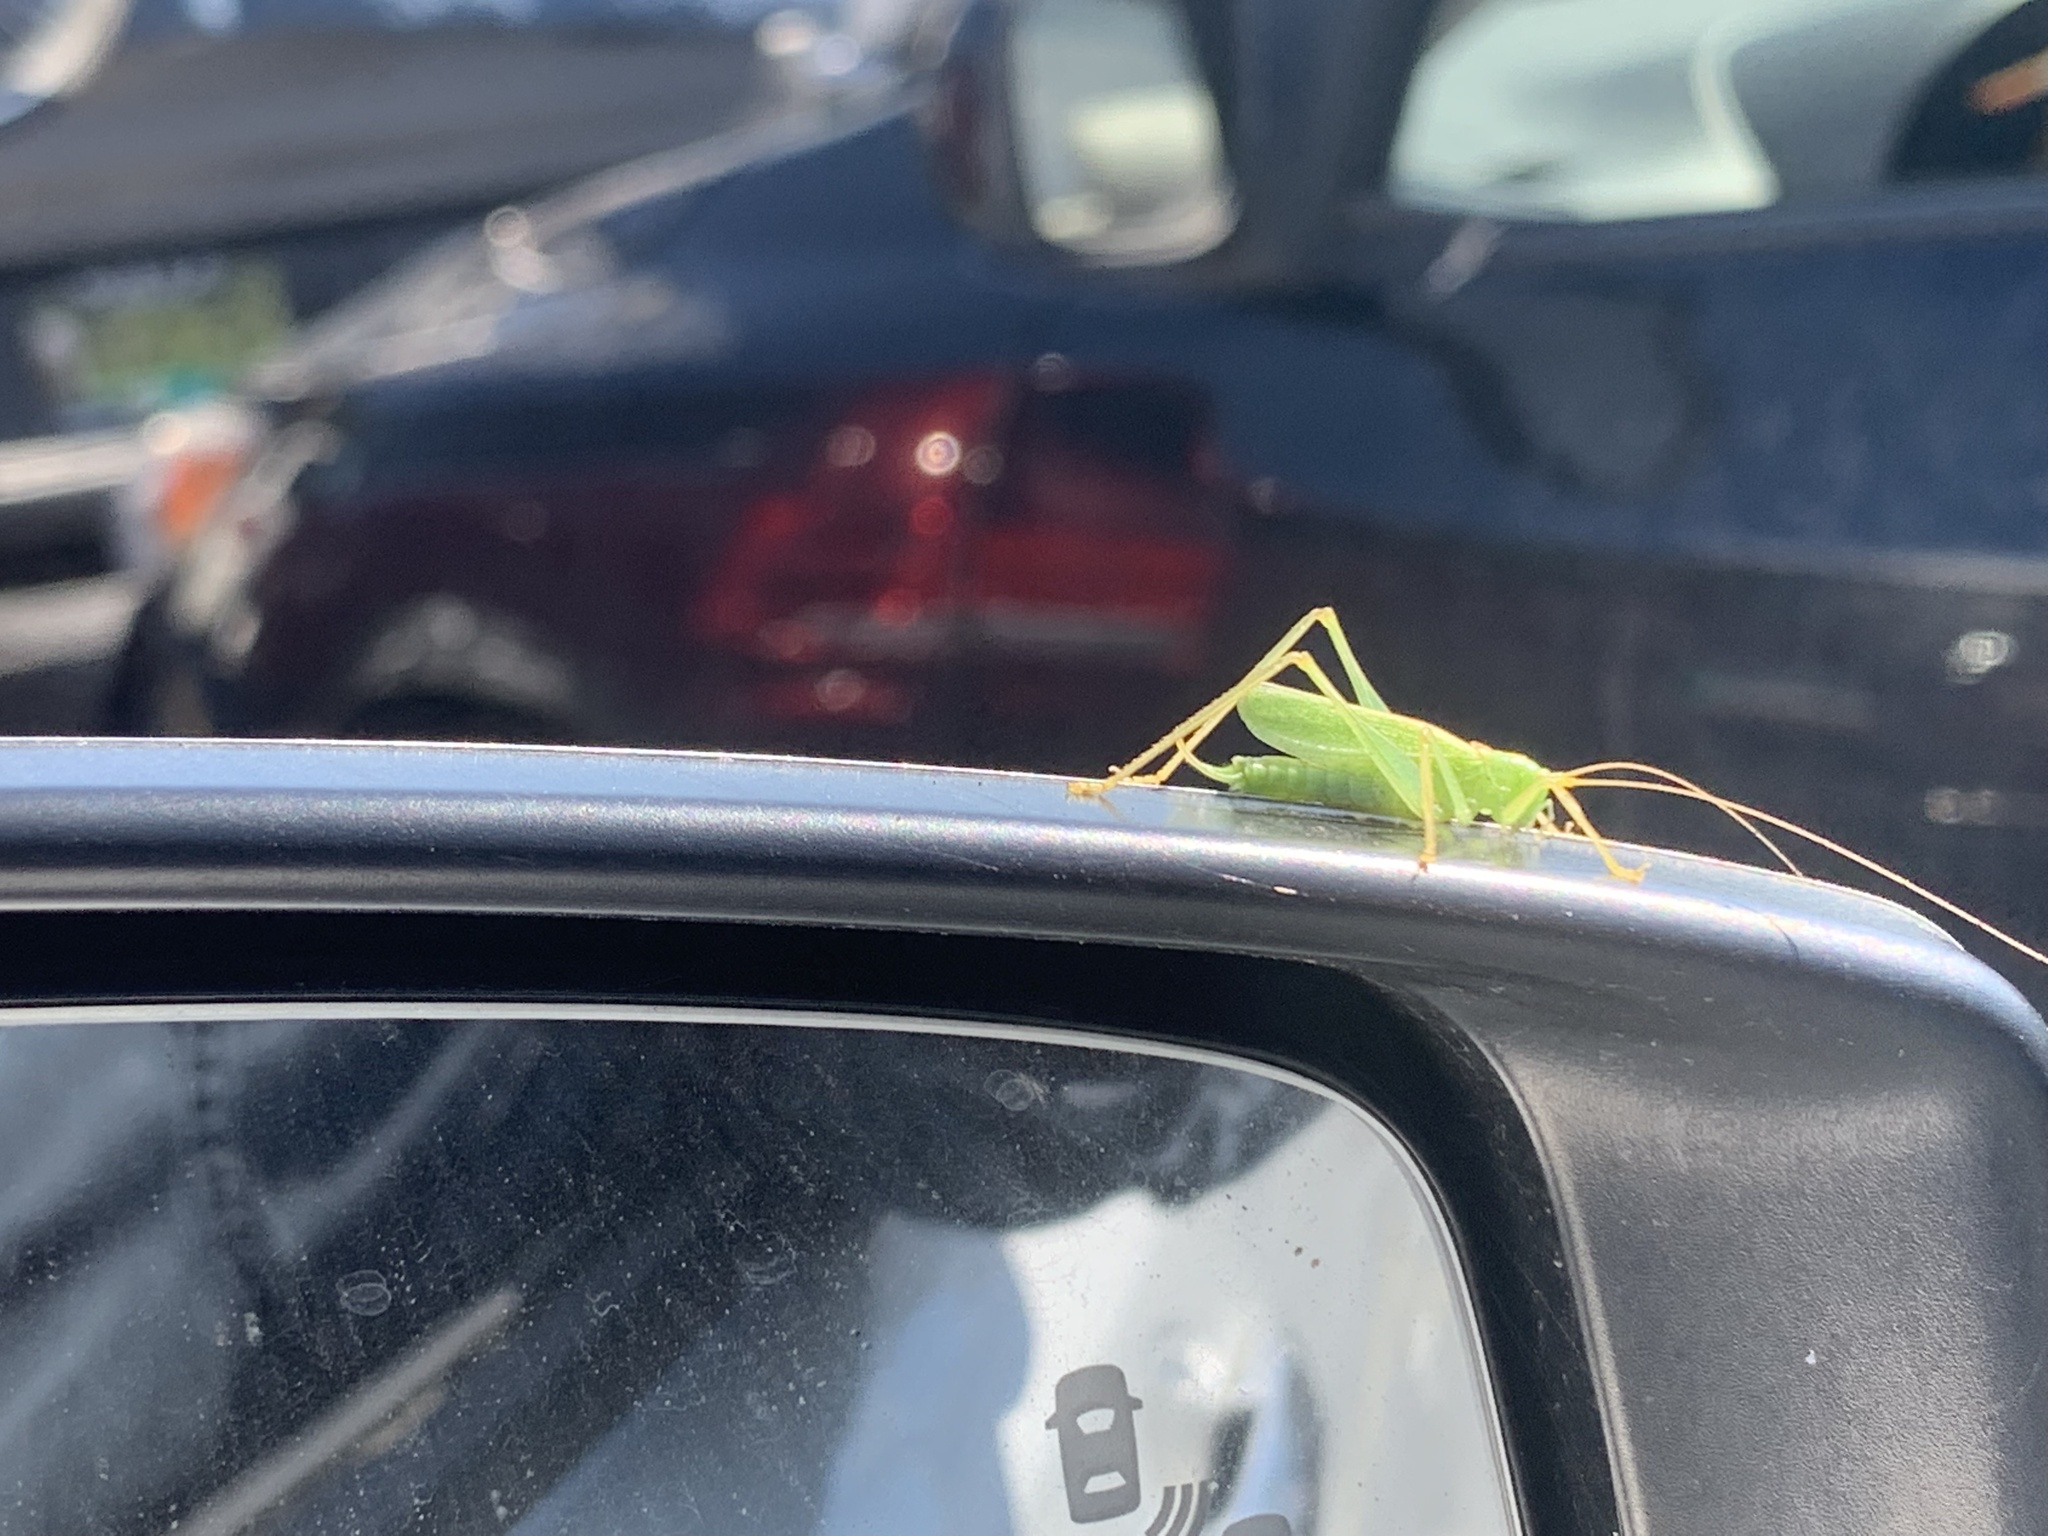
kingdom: Animalia
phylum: Arthropoda
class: Insecta
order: Orthoptera
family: Tettigoniidae
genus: Meconema
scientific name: Meconema thalassinum
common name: Oak bush-cricket
